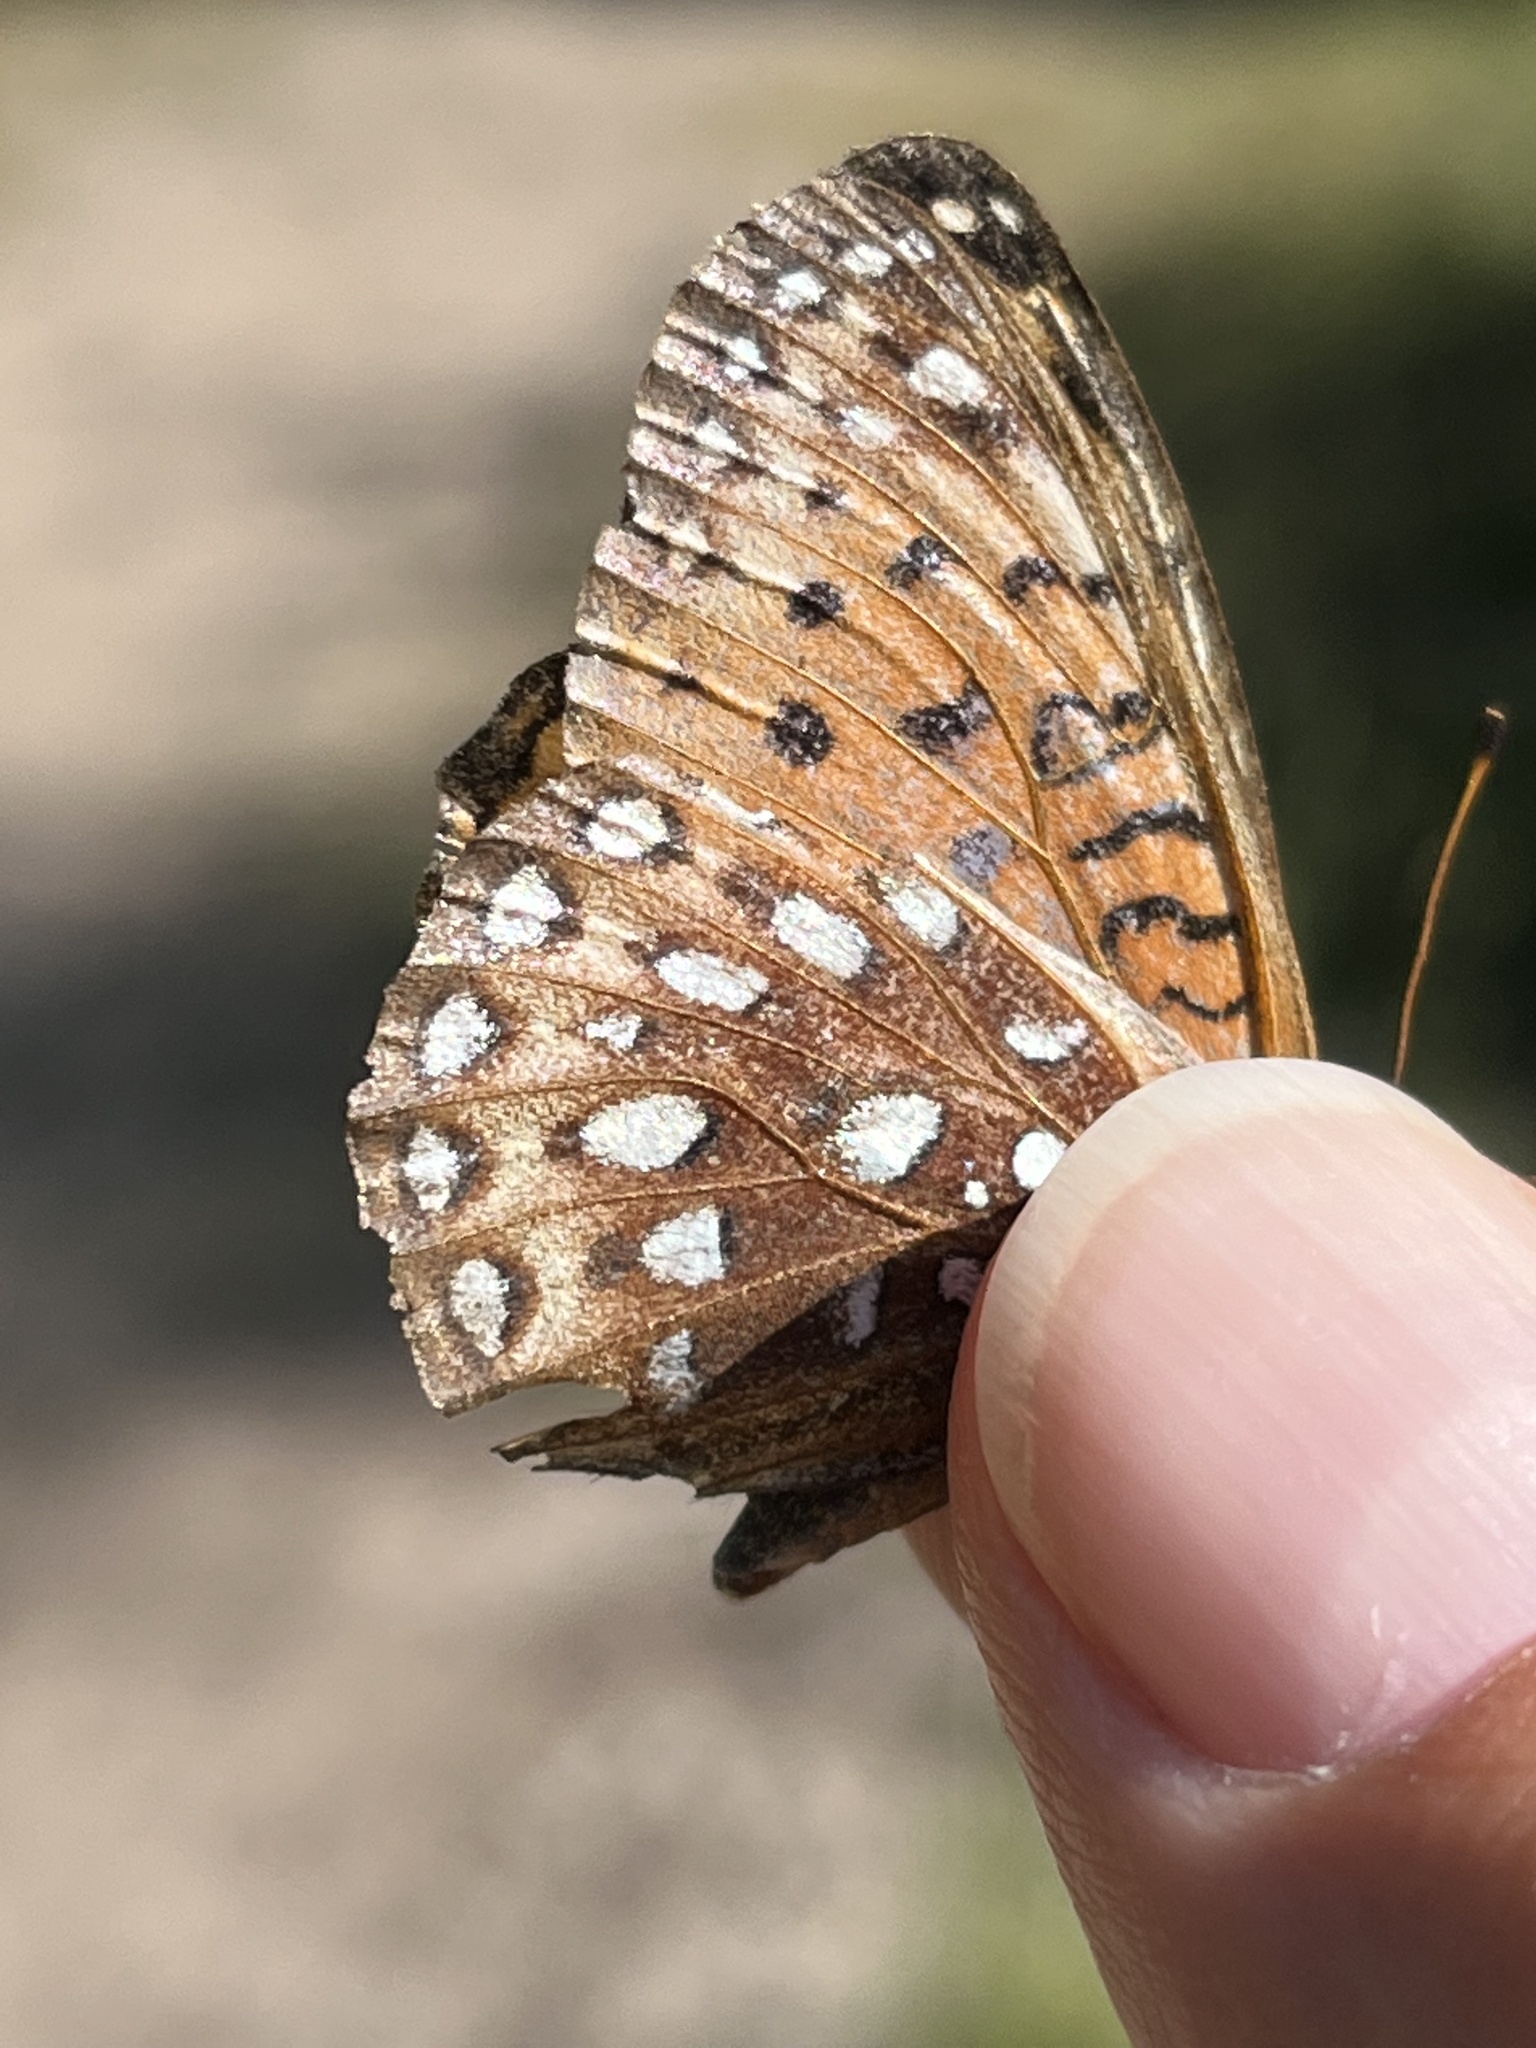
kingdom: Animalia
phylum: Arthropoda
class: Insecta
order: Lepidoptera
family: Nymphalidae
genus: Speyeria
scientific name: Speyeria atlantis
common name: Atlantis fritillary
